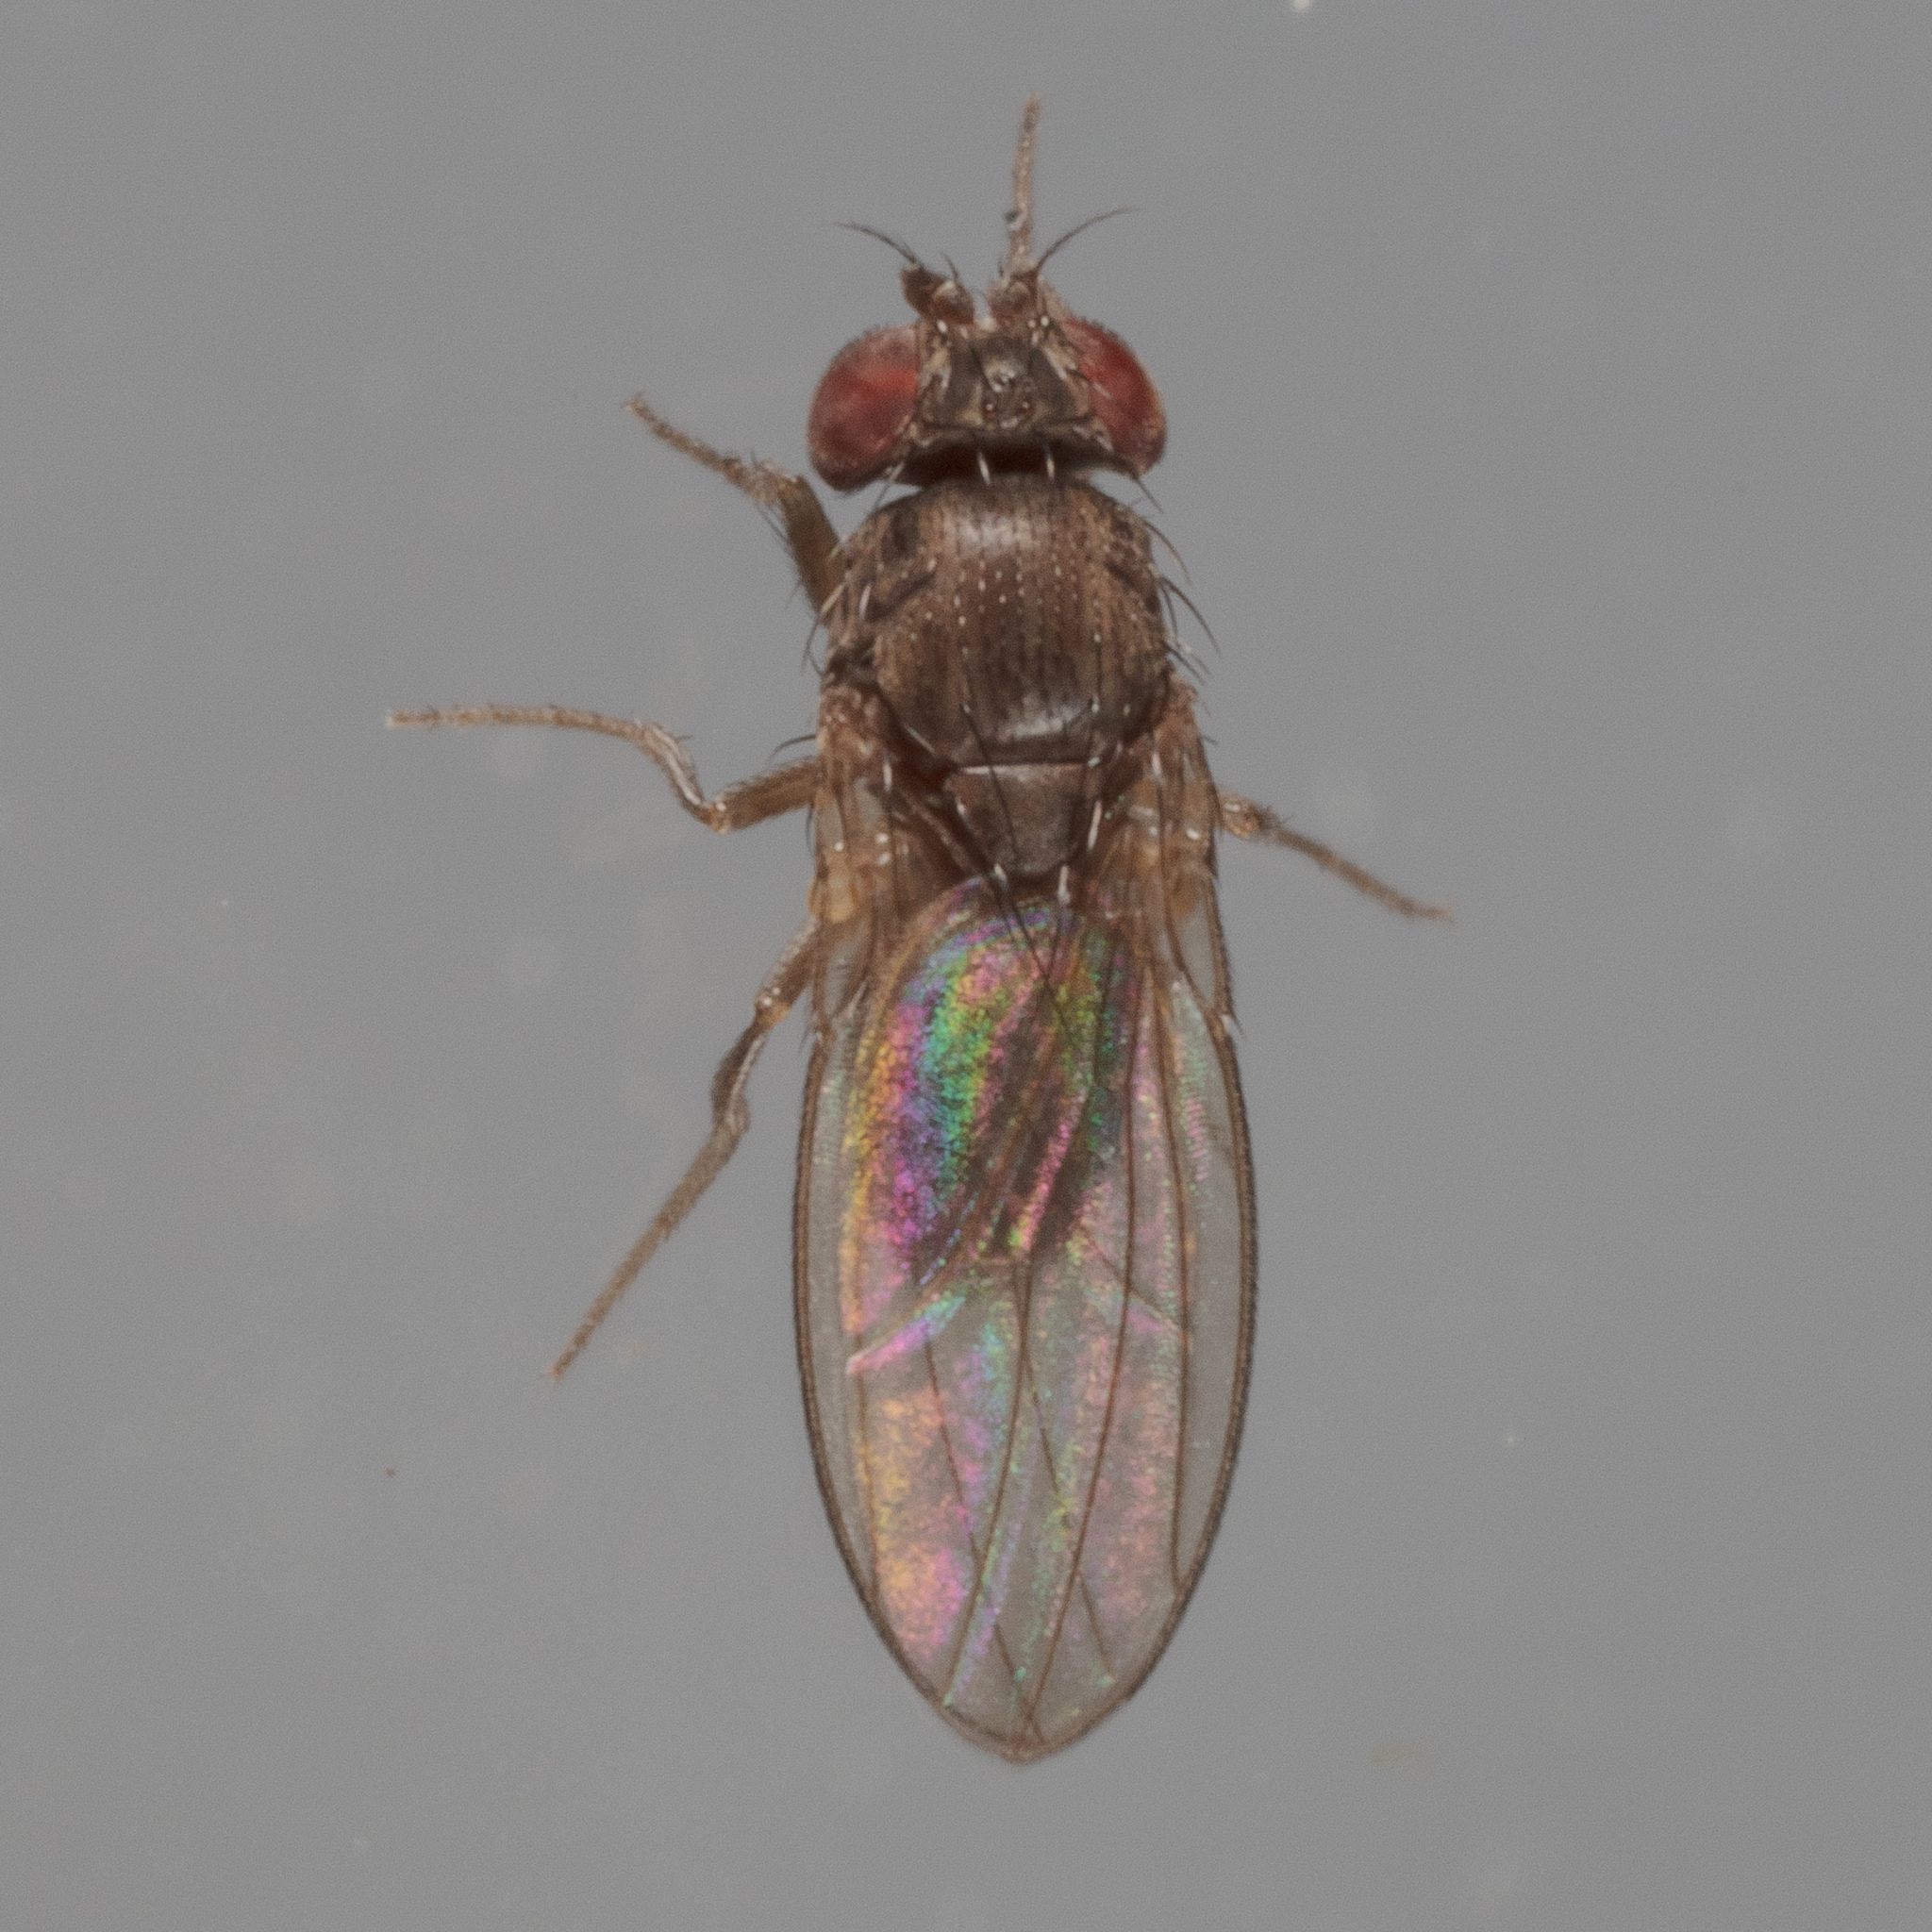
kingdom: Animalia
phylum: Arthropoda
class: Insecta
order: Diptera
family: Drosophilidae
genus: Drosophila
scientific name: Drosophila melanica
